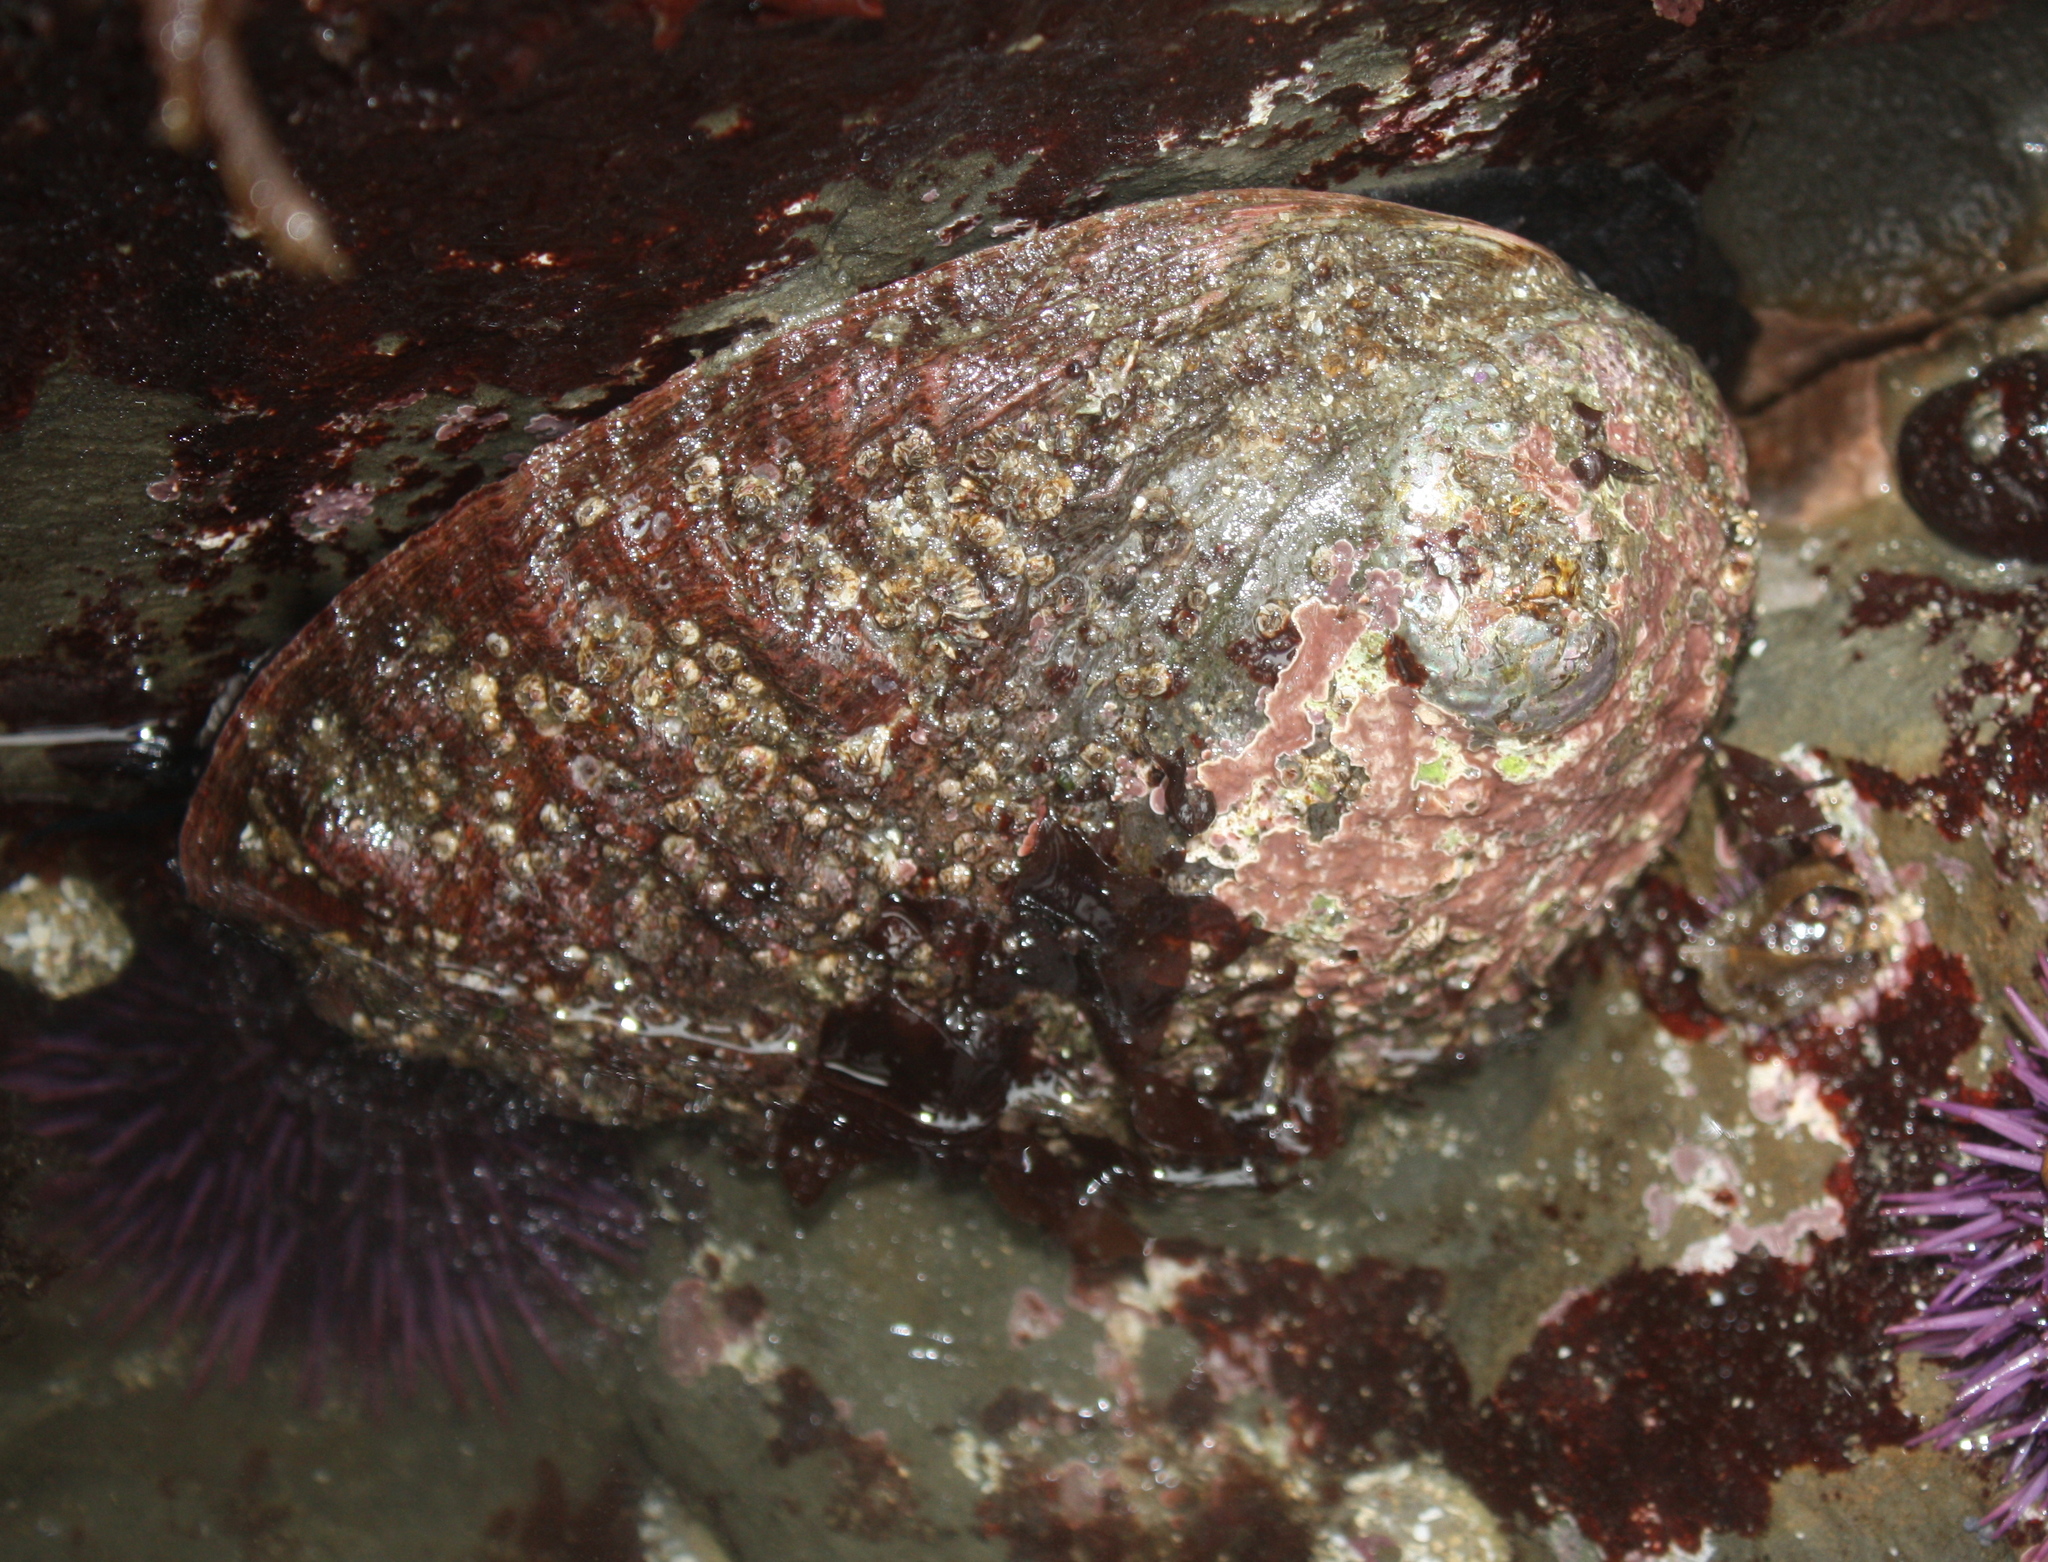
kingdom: Animalia
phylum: Mollusca
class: Gastropoda
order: Lepetellida
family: Haliotidae
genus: Haliotis
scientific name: Haliotis rufescens
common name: Red abalone
